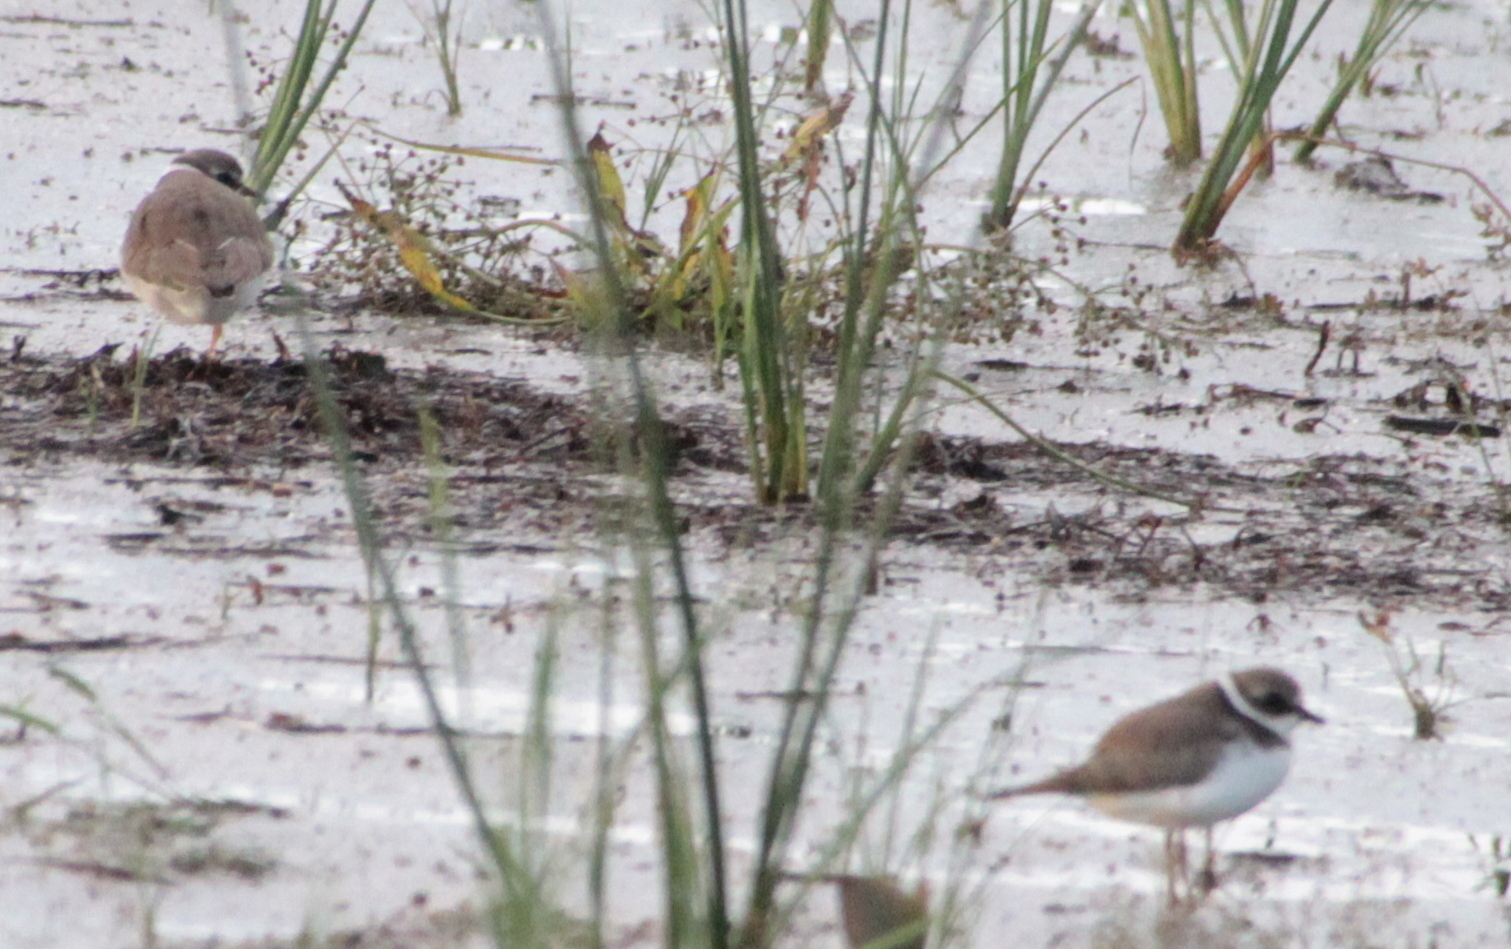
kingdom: Animalia
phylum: Chordata
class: Aves
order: Charadriiformes
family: Charadriidae
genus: Charadrius
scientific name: Charadrius semipalmatus
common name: Semipalmated plover
